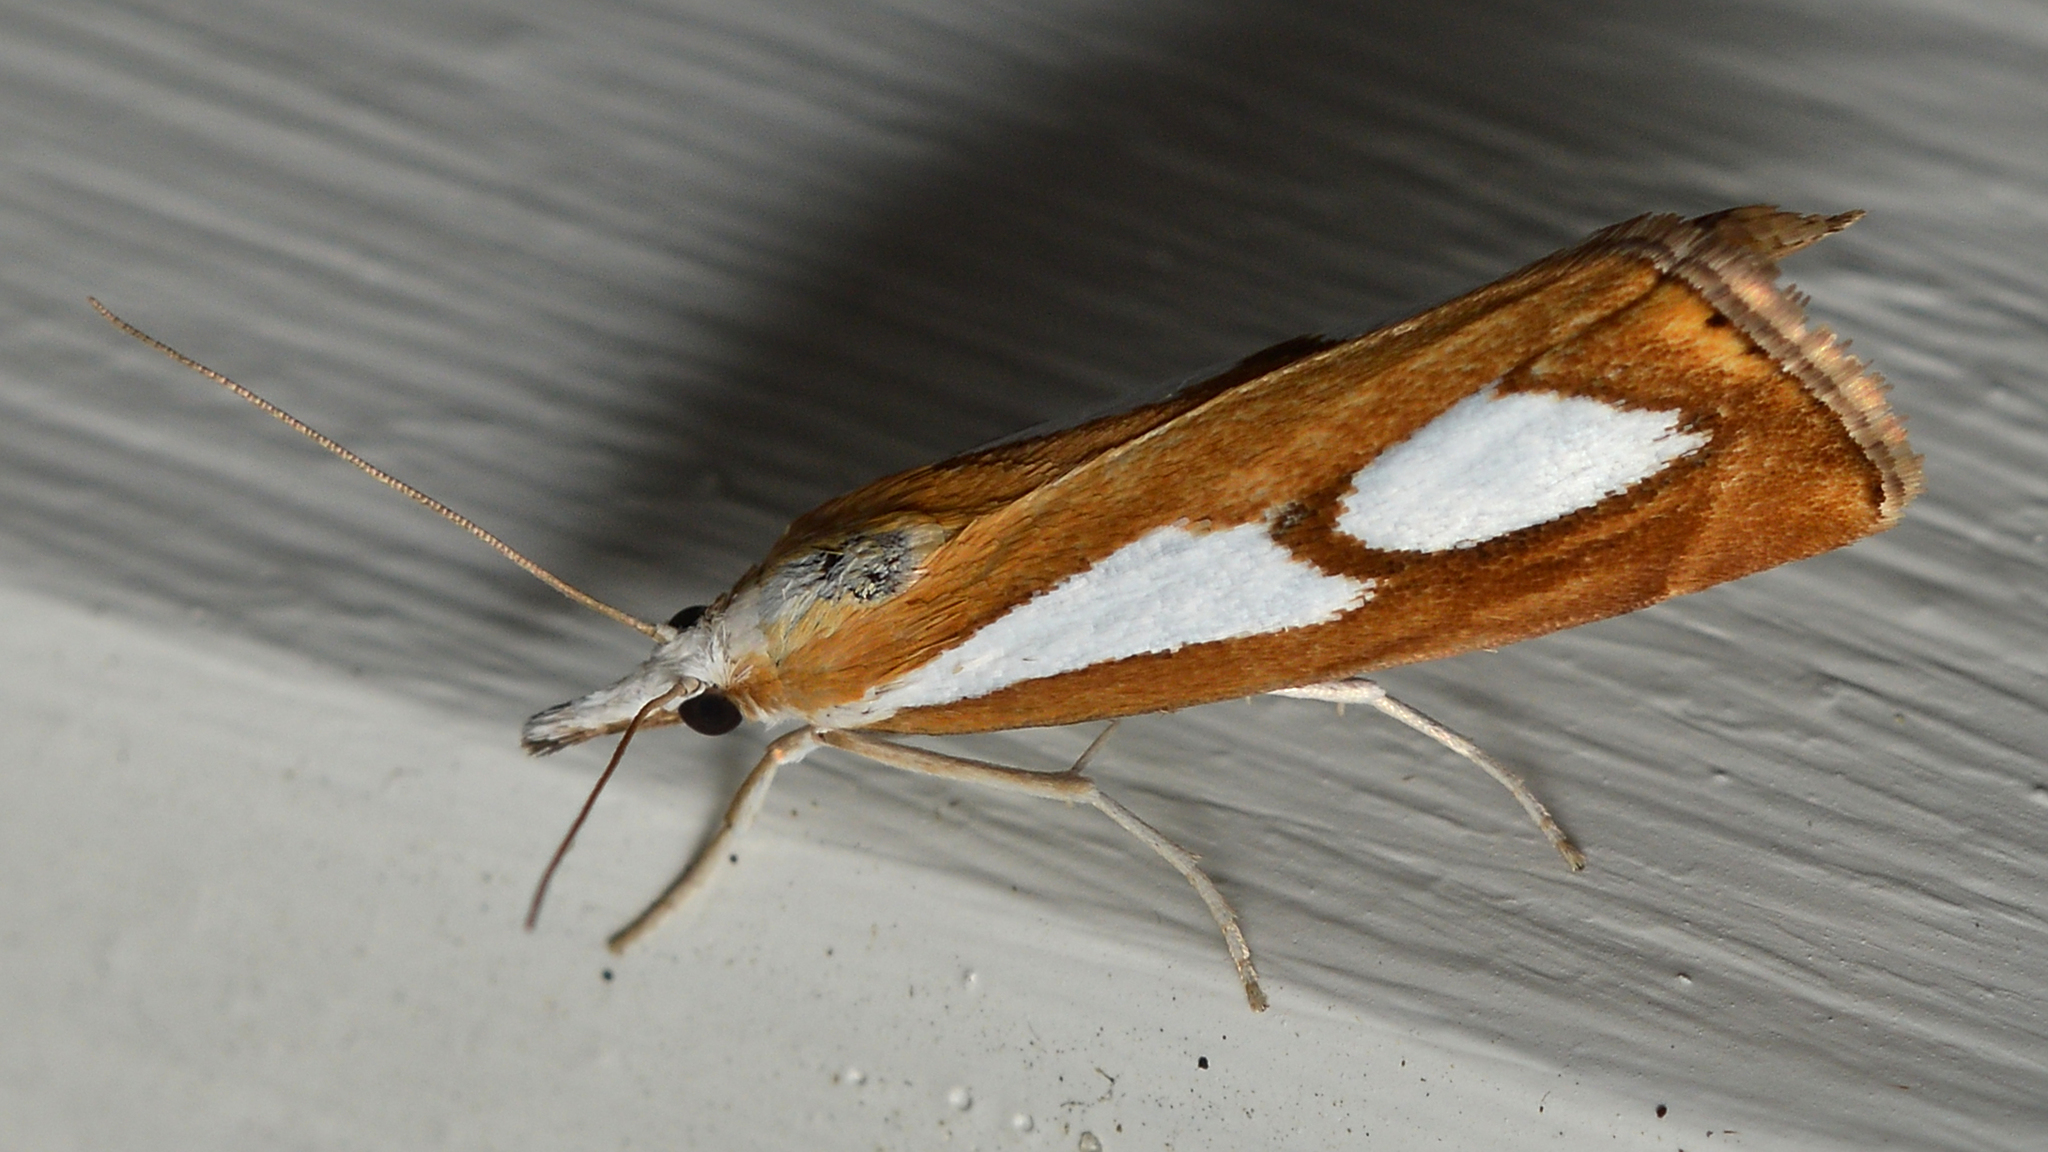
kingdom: Animalia
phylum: Arthropoda
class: Insecta
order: Lepidoptera
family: Crambidae
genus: Catoptria
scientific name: Catoptria pinella
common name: Pearl grass-veneer
